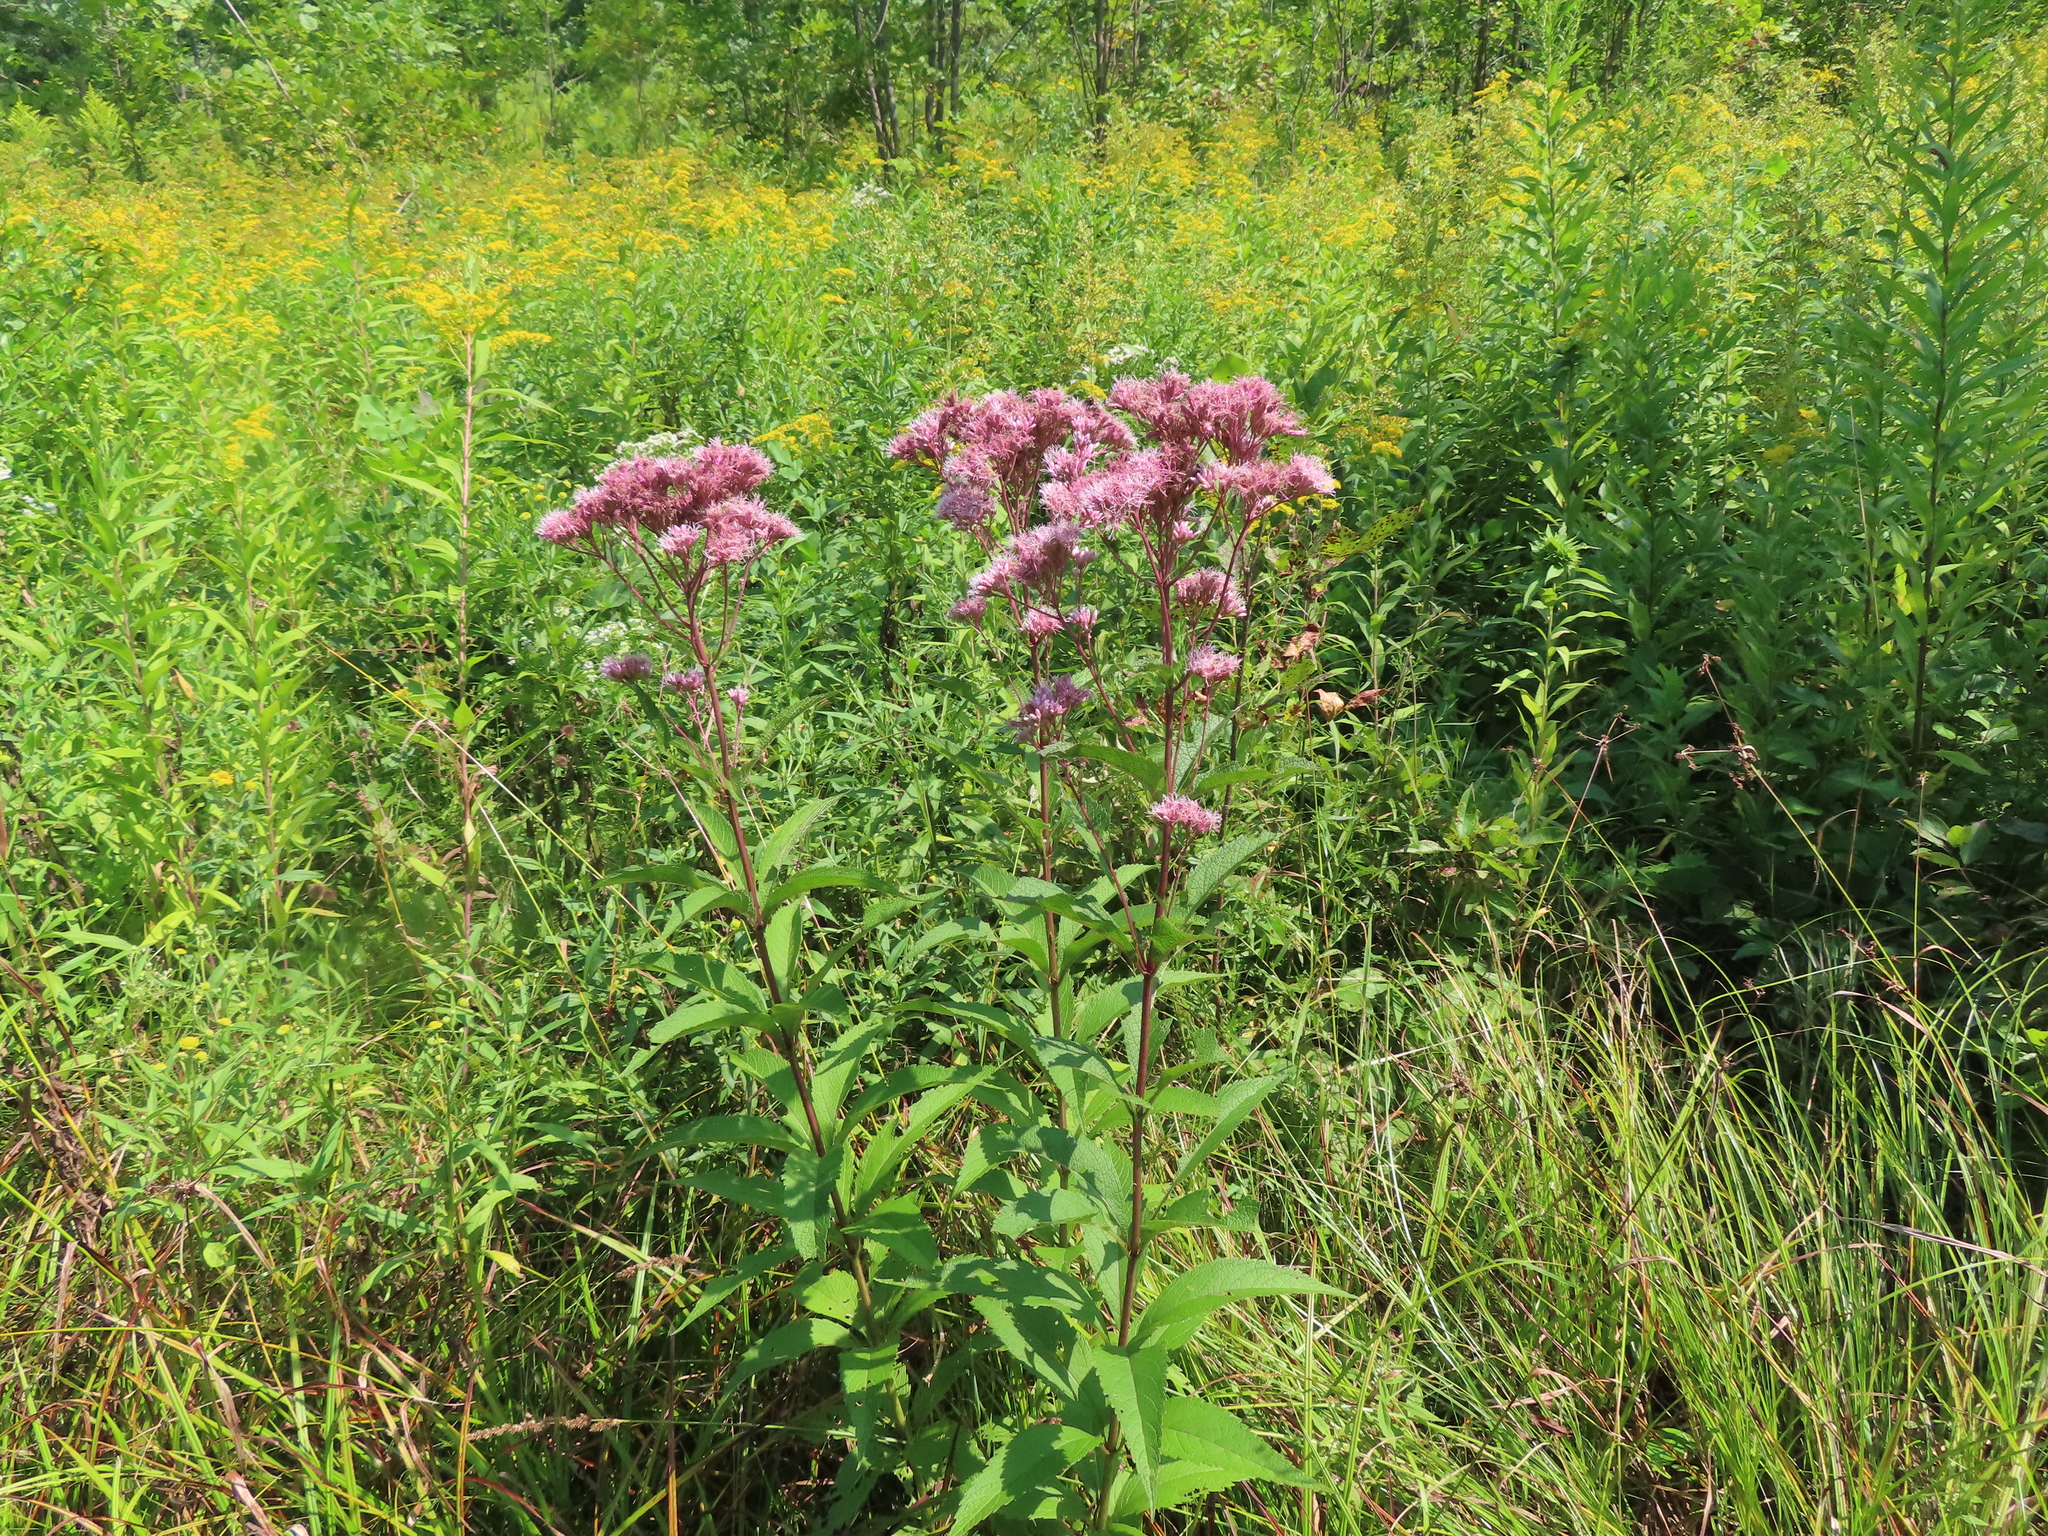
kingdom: Plantae
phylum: Tracheophyta
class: Magnoliopsida
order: Asterales
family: Asteraceae
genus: Eutrochium
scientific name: Eutrochium maculatum
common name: Spotted joe pye weed
